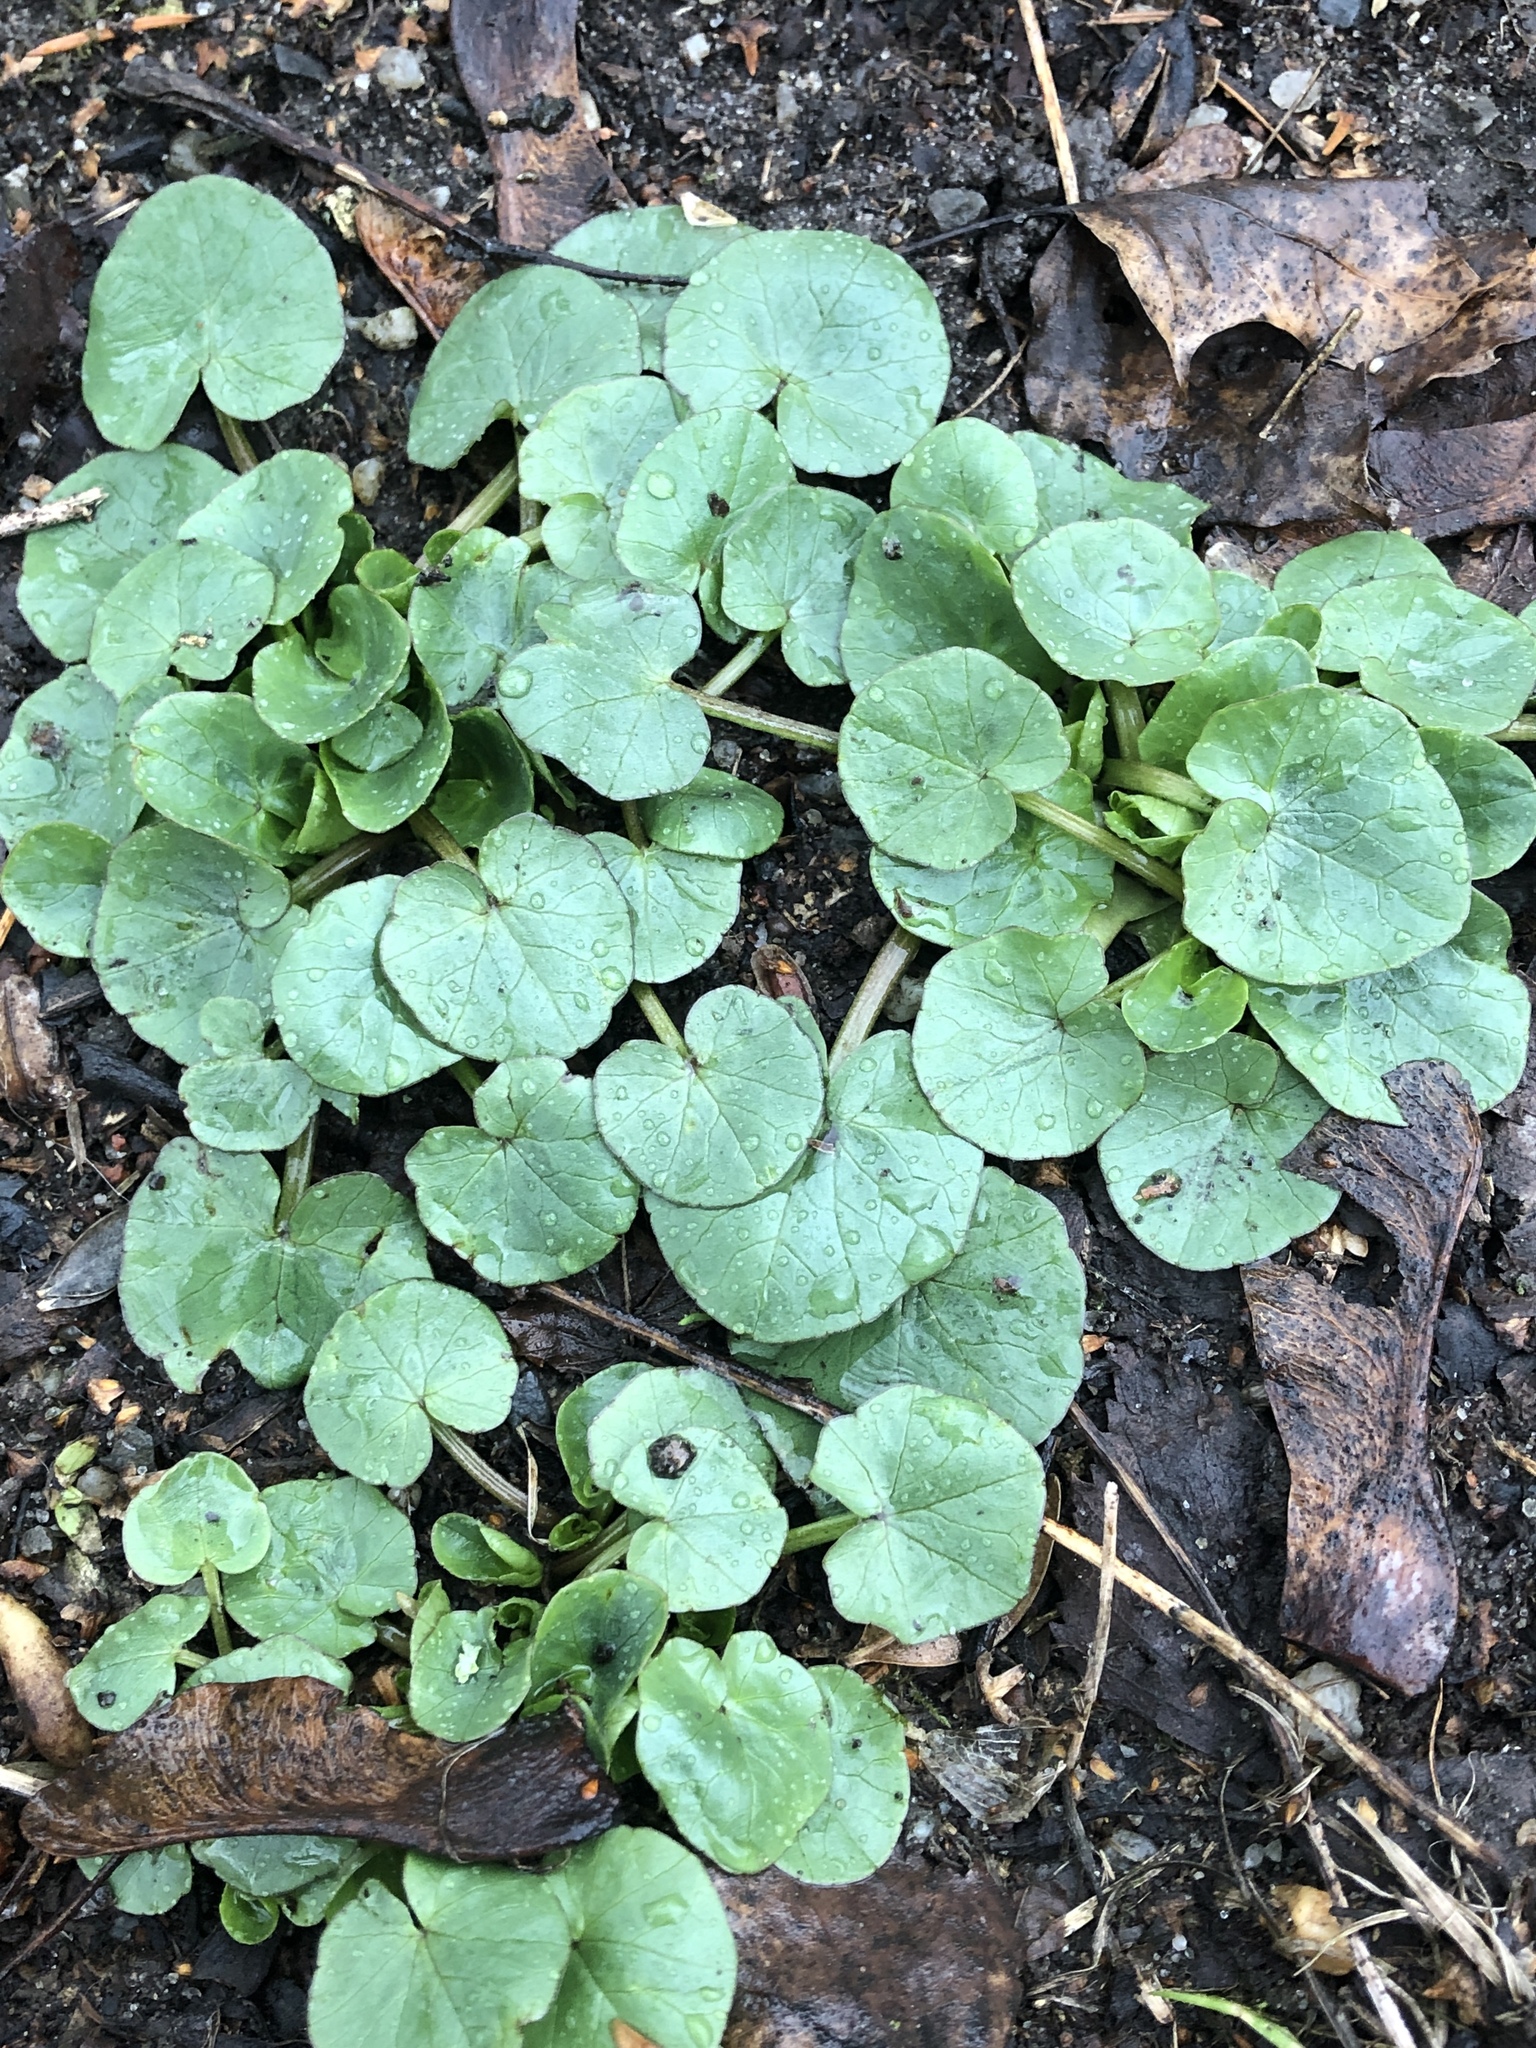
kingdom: Plantae
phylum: Tracheophyta
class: Magnoliopsida
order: Ranunculales
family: Ranunculaceae
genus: Ficaria
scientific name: Ficaria verna
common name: Lesser celandine
